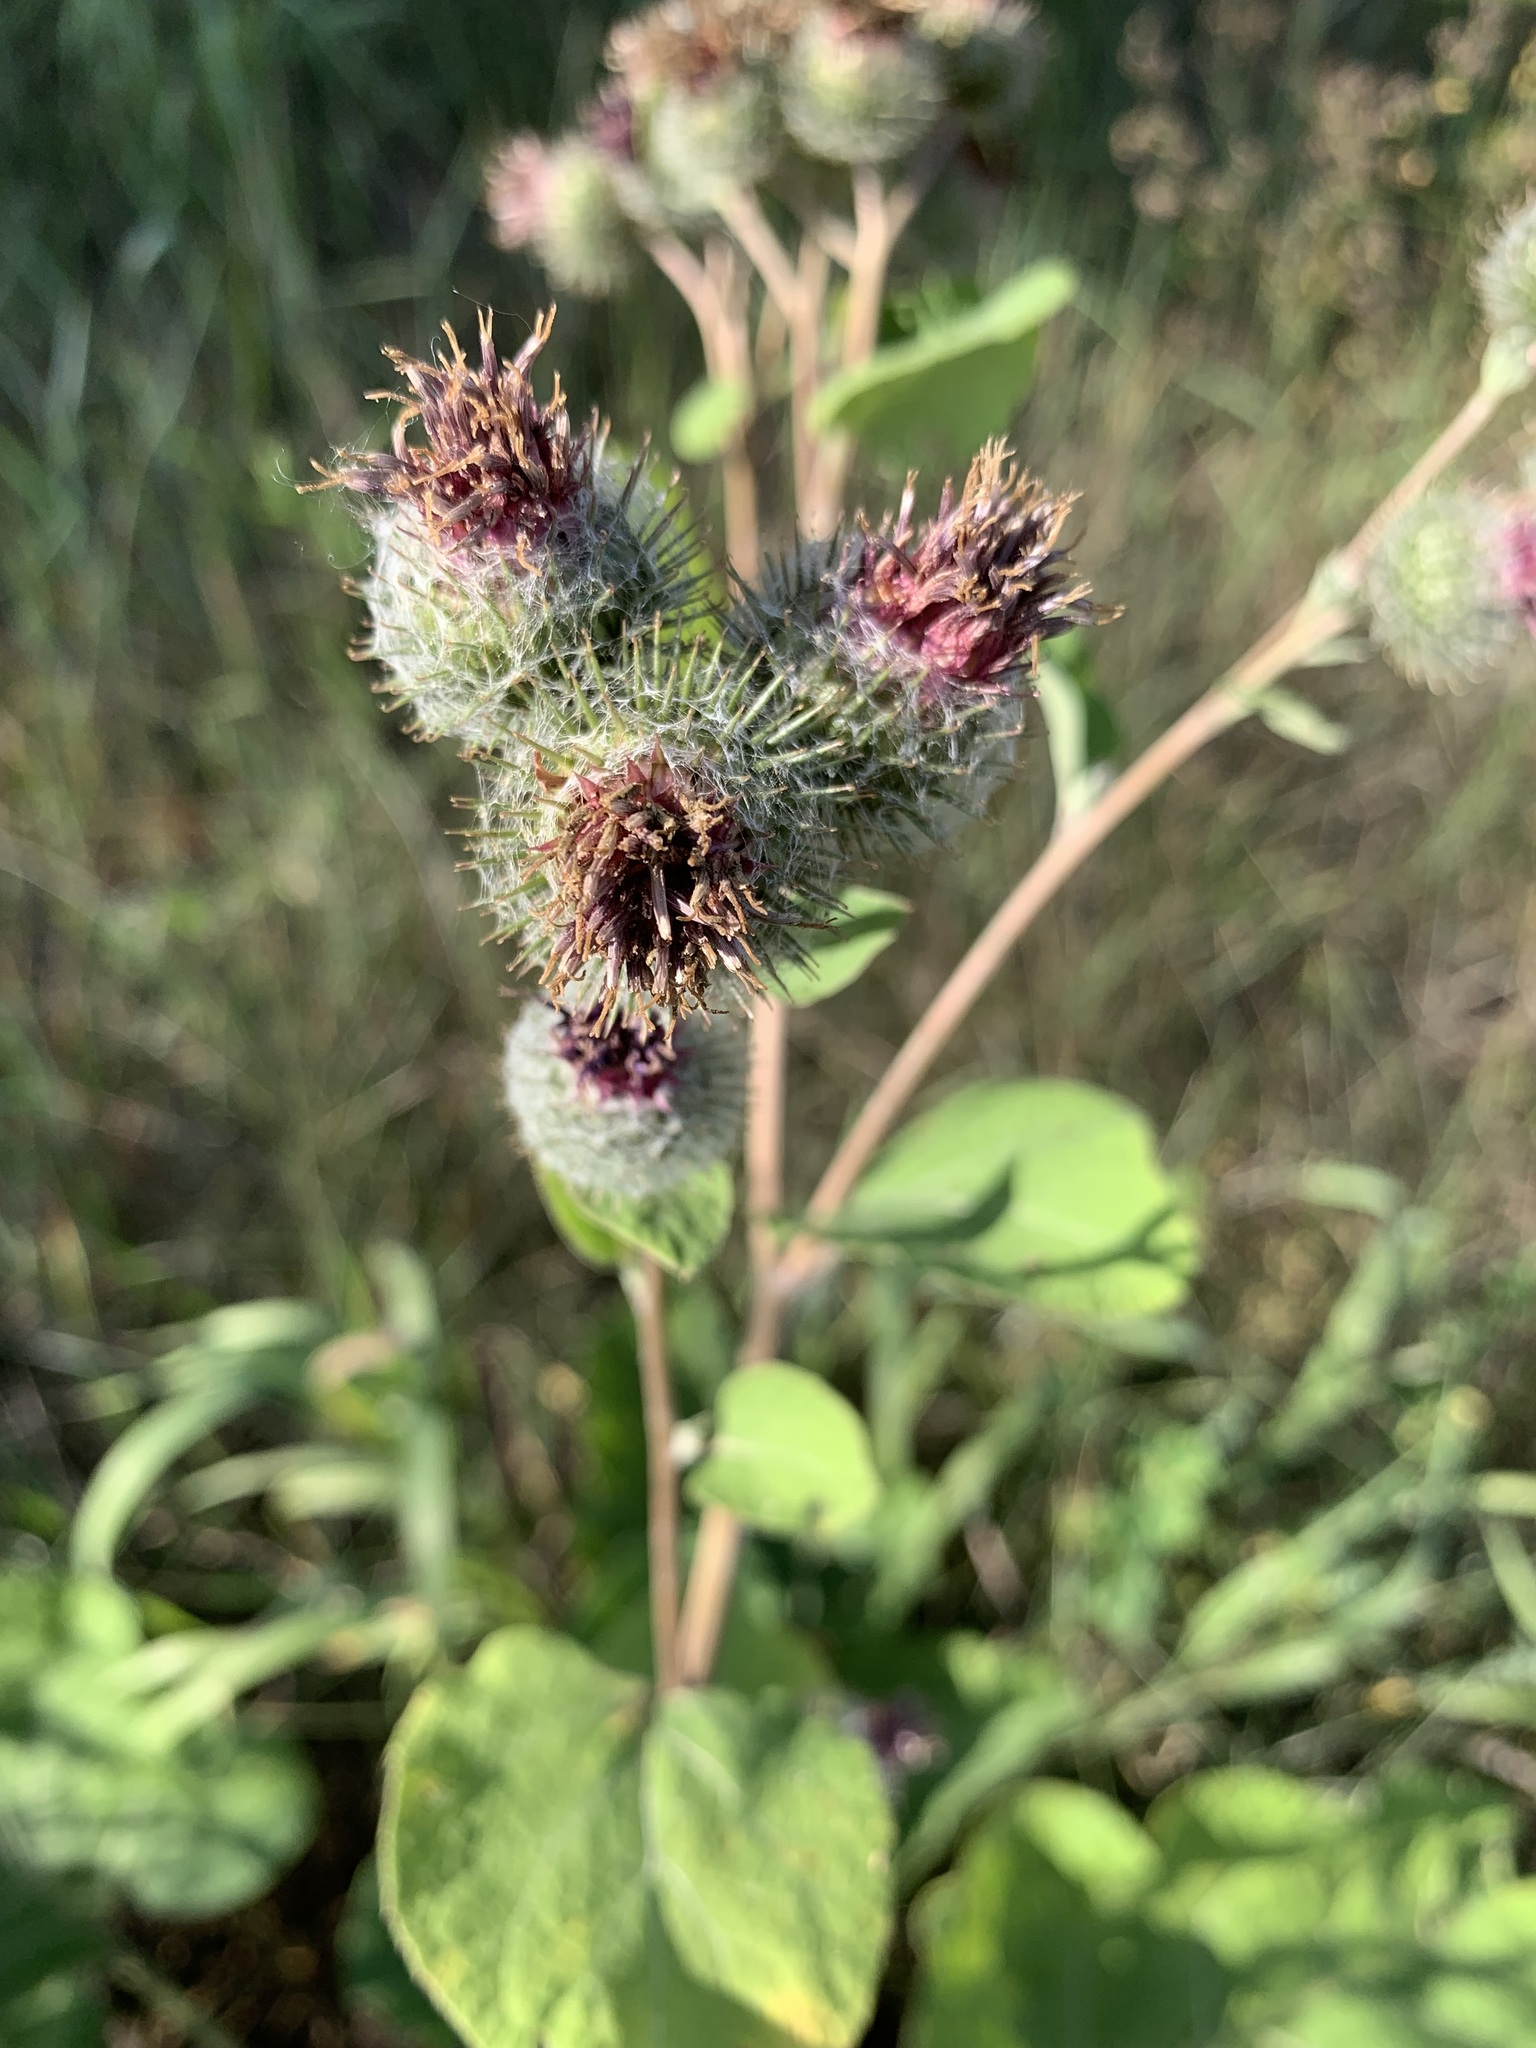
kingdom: Plantae
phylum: Tracheophyta
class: Magnoliopsida
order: Asterales
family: Asteraceae
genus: Arctium
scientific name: Arctium tomentosum
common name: Woolly burdock
